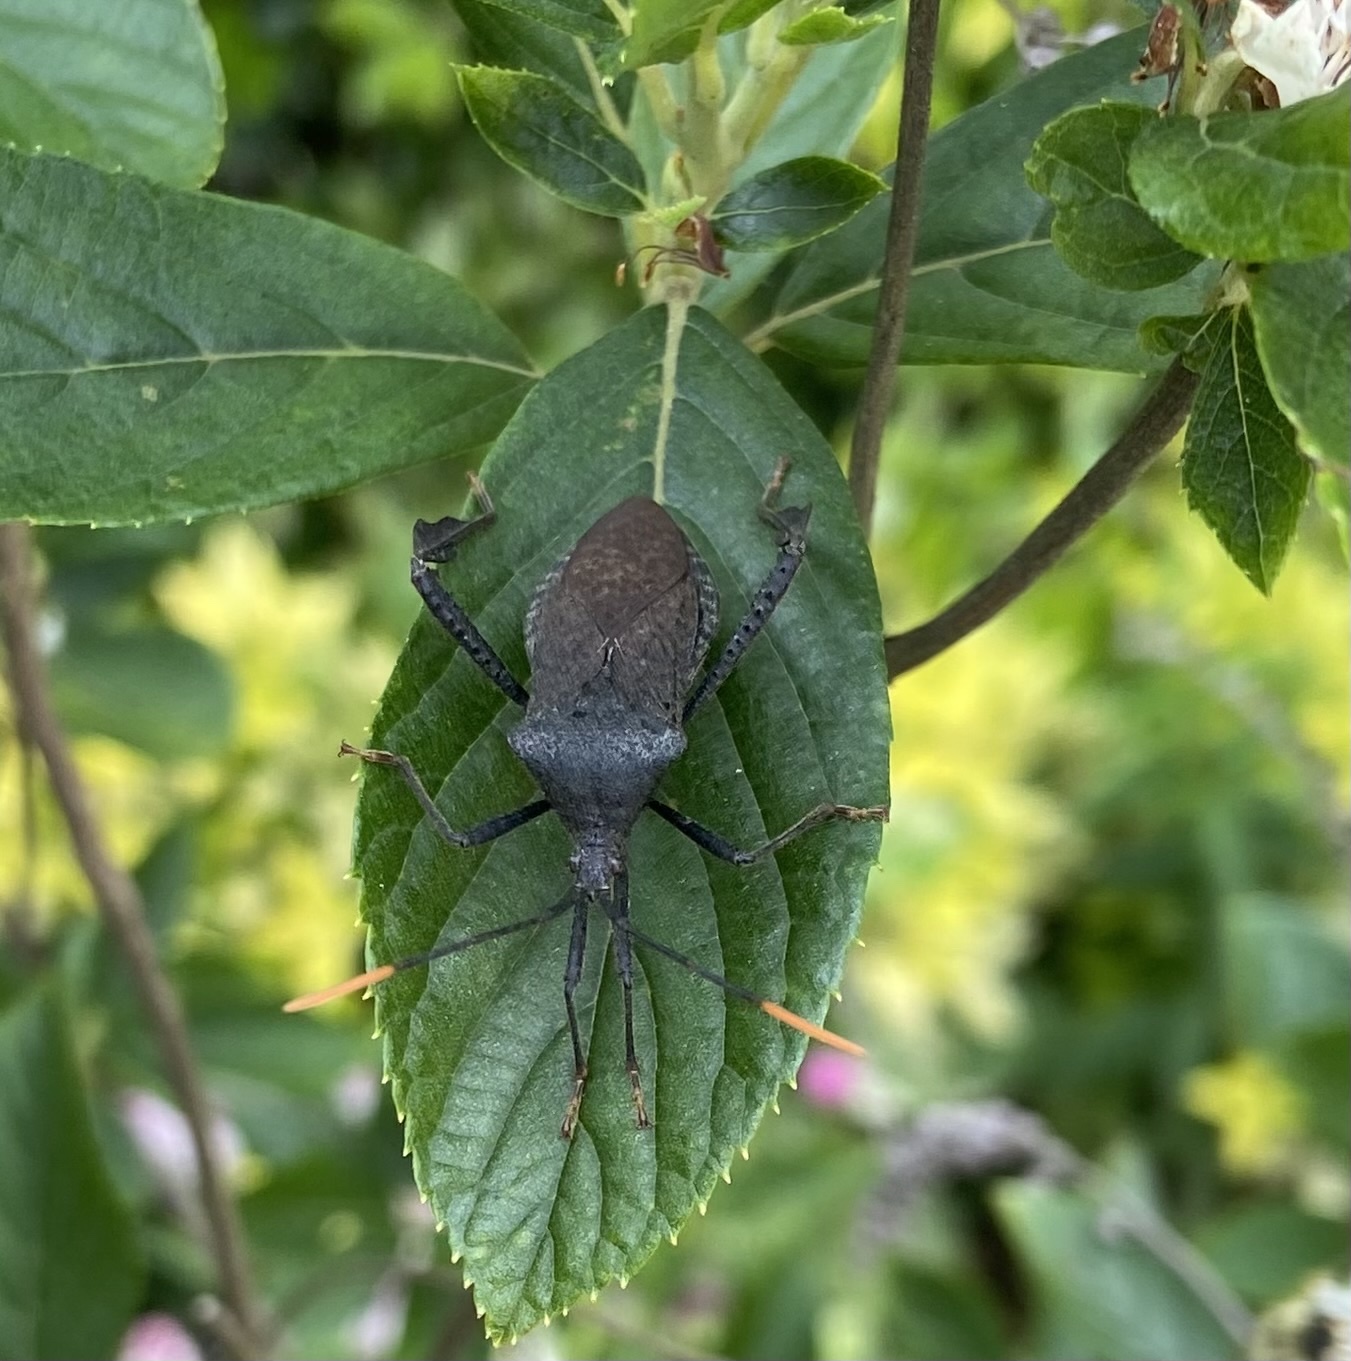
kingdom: Animalia
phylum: Arthropoda
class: Insecta
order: Hemiptera
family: Coreidae
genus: Acanthocephala
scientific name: Acanthocephala terminalis
